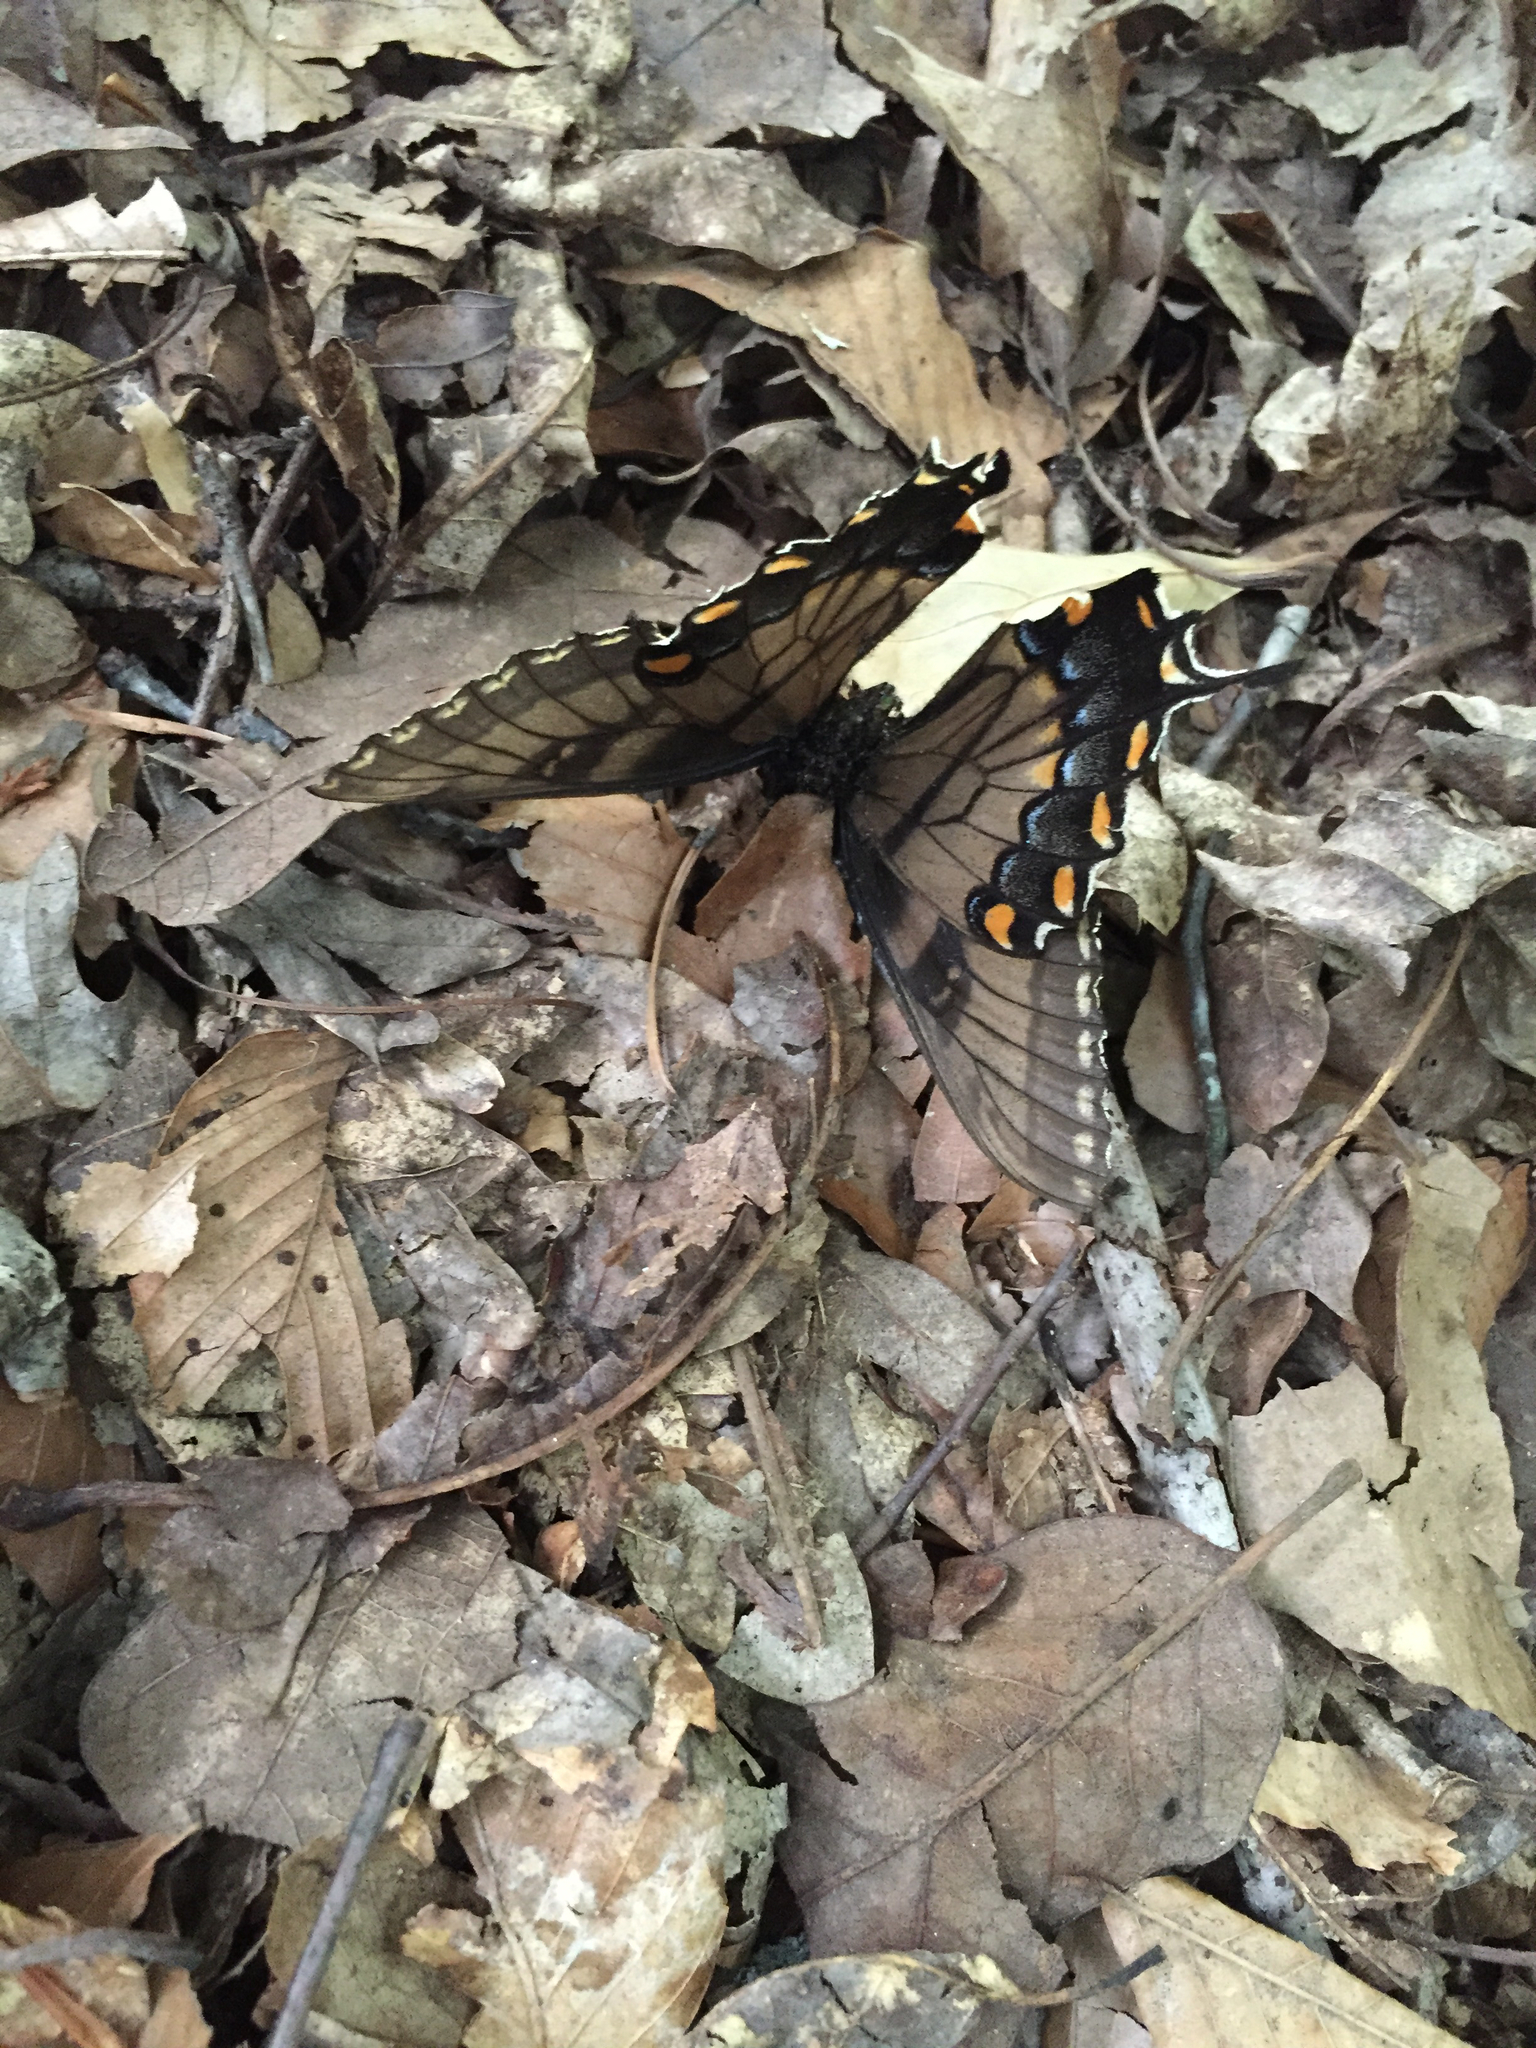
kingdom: Animalia
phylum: Arthropoda
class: Insecta
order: Lepidoptera
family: Papilionidae
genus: Papilio
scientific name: Papilio glaucus
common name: Tiger swallowtail
